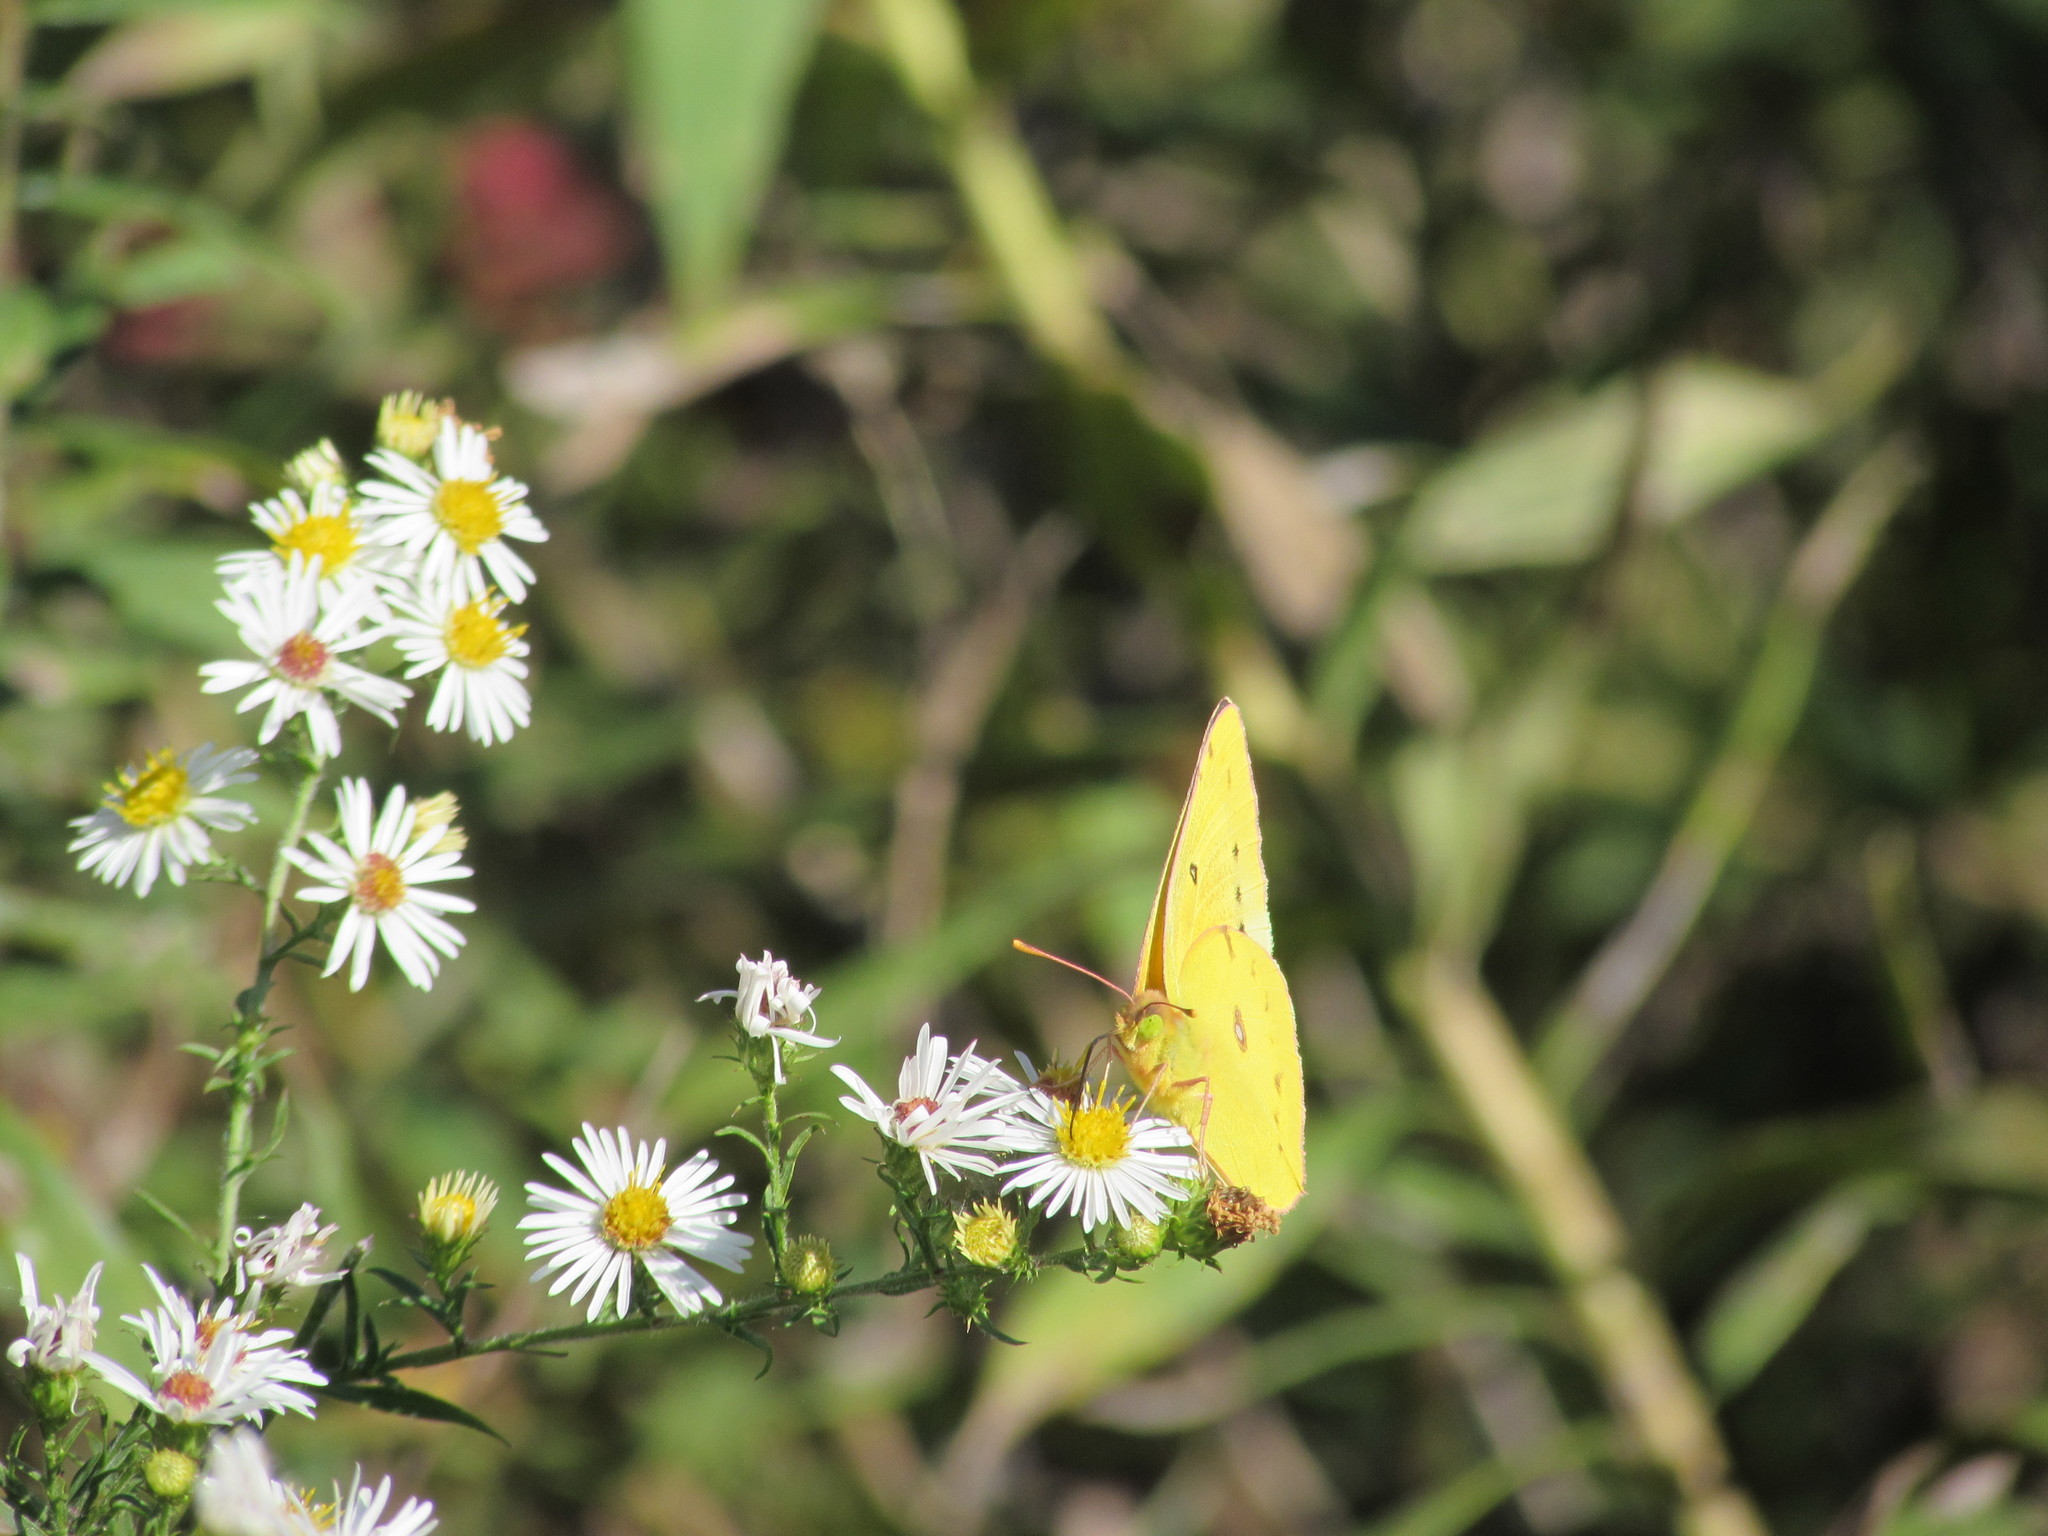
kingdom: Animalia
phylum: Arthropoda
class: Insecta
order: Lepidoptera
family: Pieridae
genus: Colias
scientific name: Colias eurytheme
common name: Alfalfa butterfly
